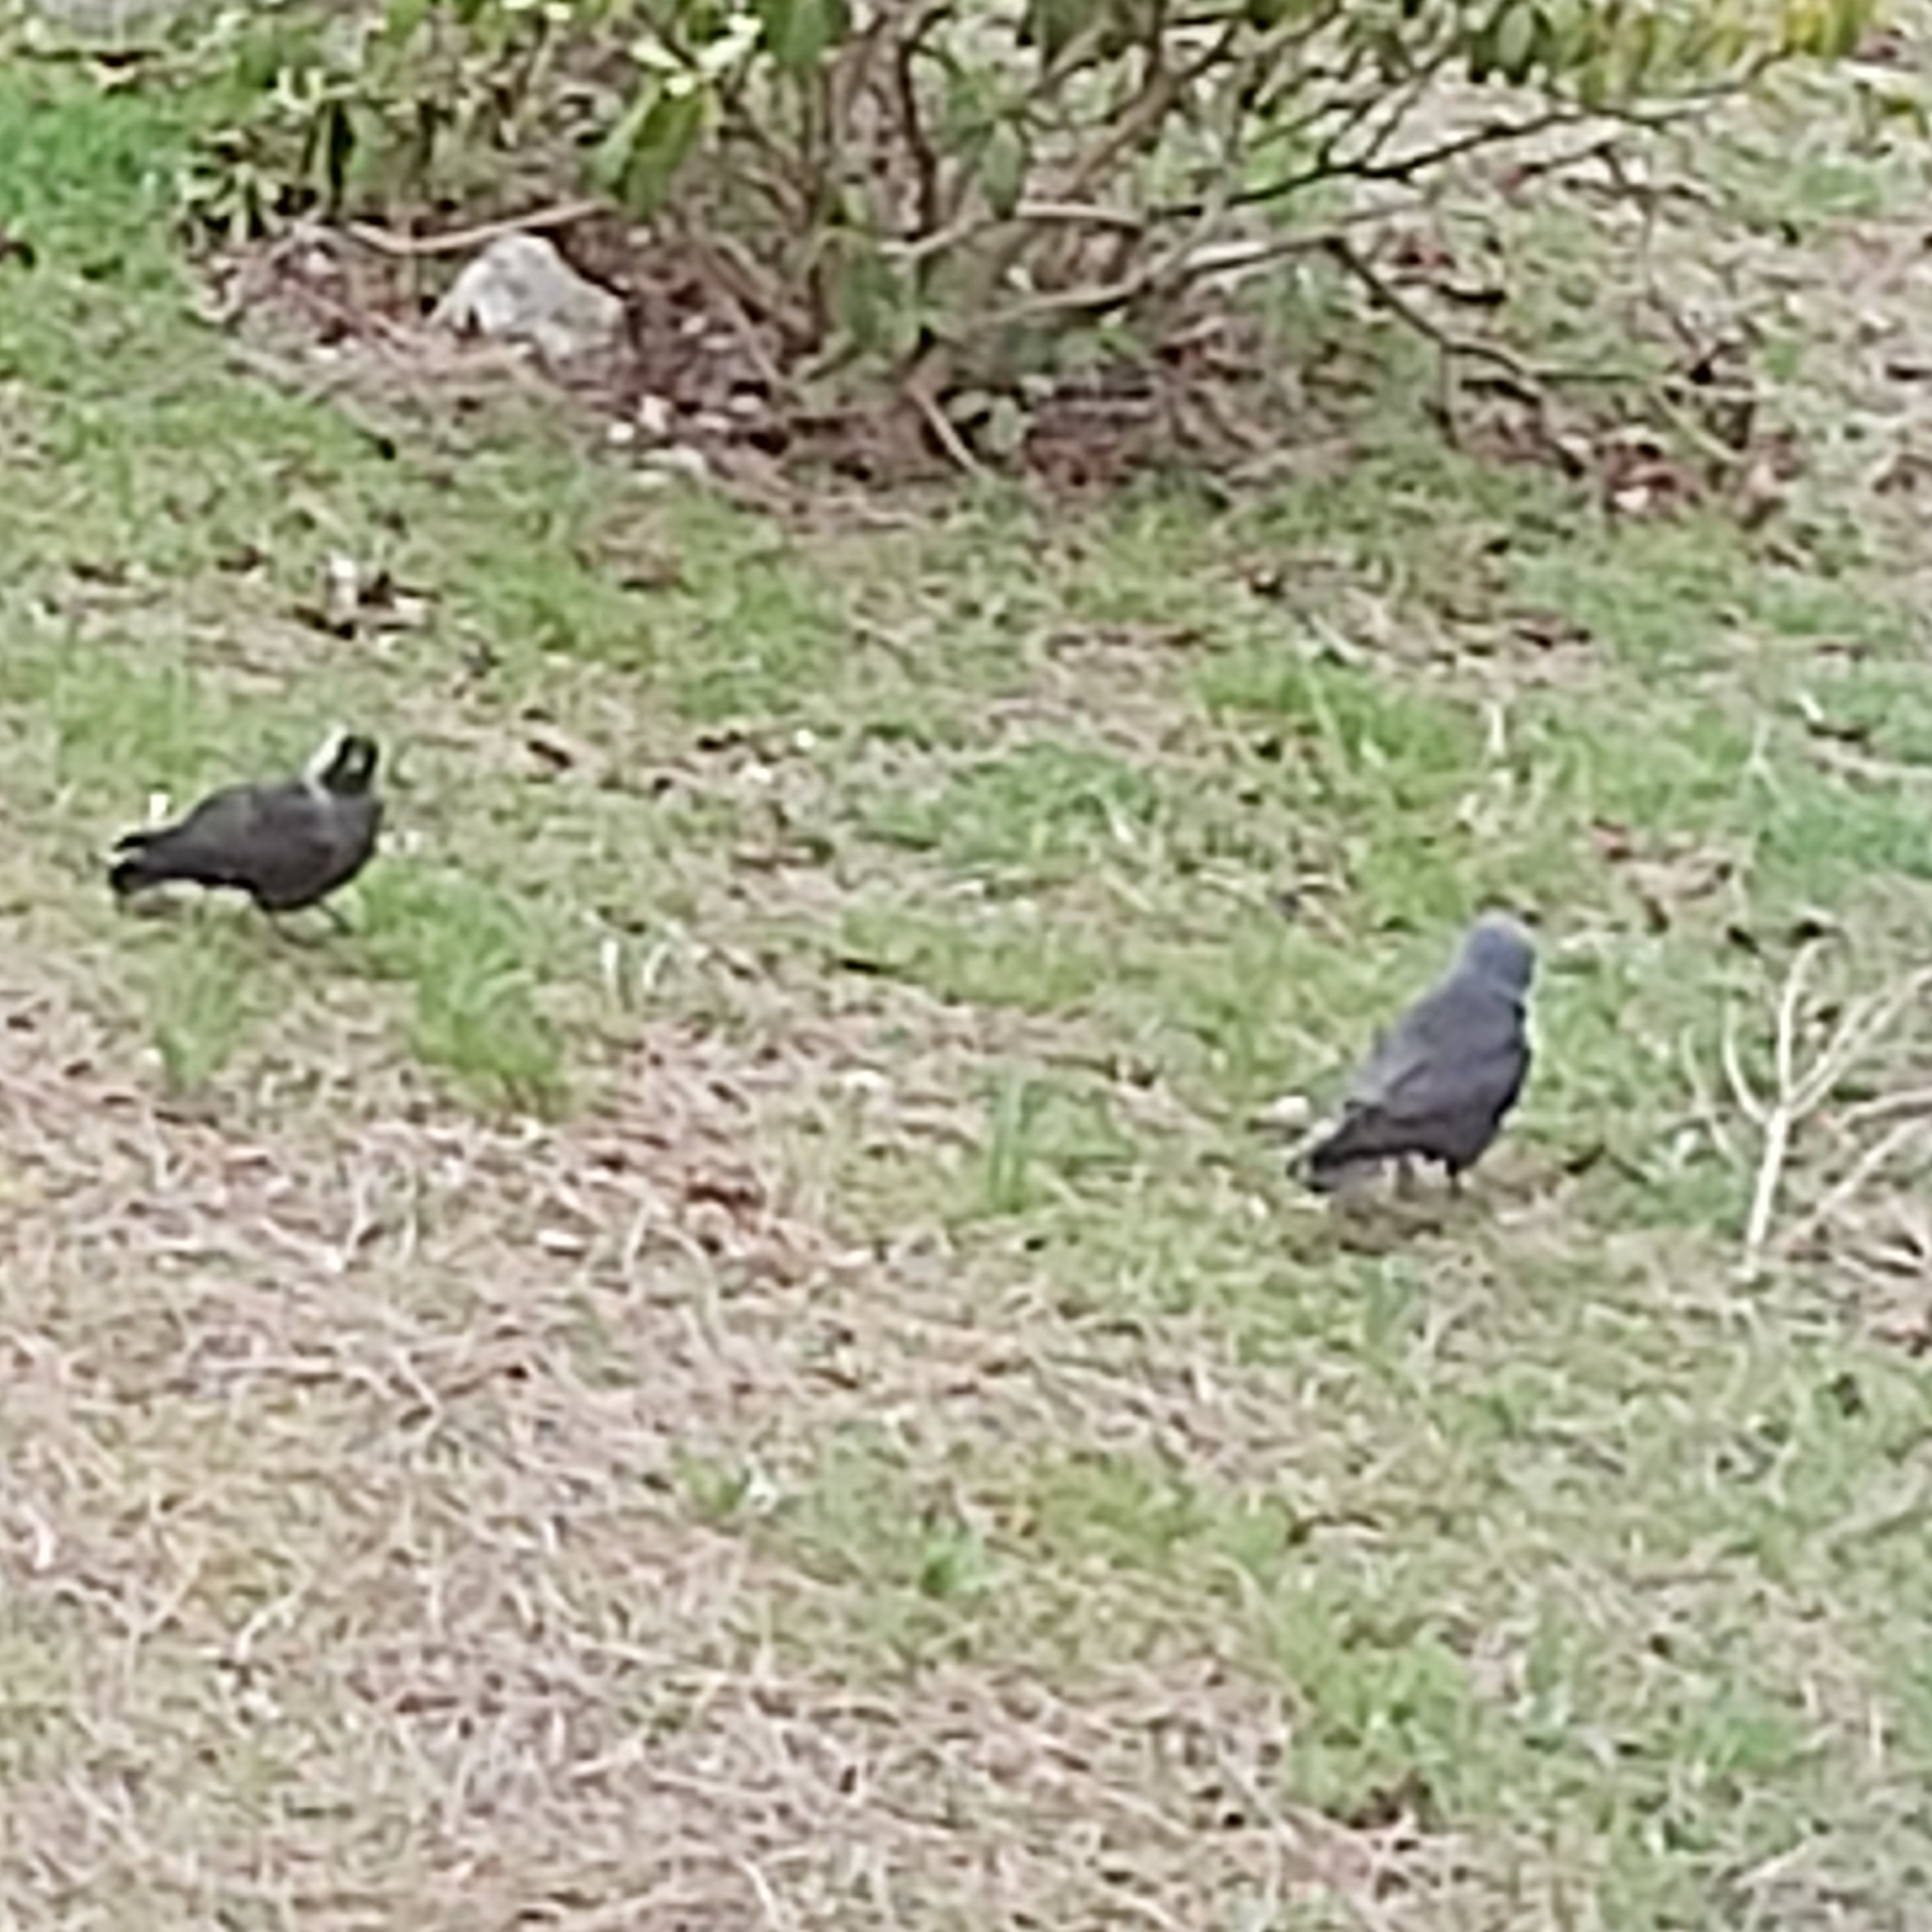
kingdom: Animalia
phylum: Chordata
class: Aves
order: Passeriformes
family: Corvidae
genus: Coloeus
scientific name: Coloeus monedula
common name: Western jackdaw
